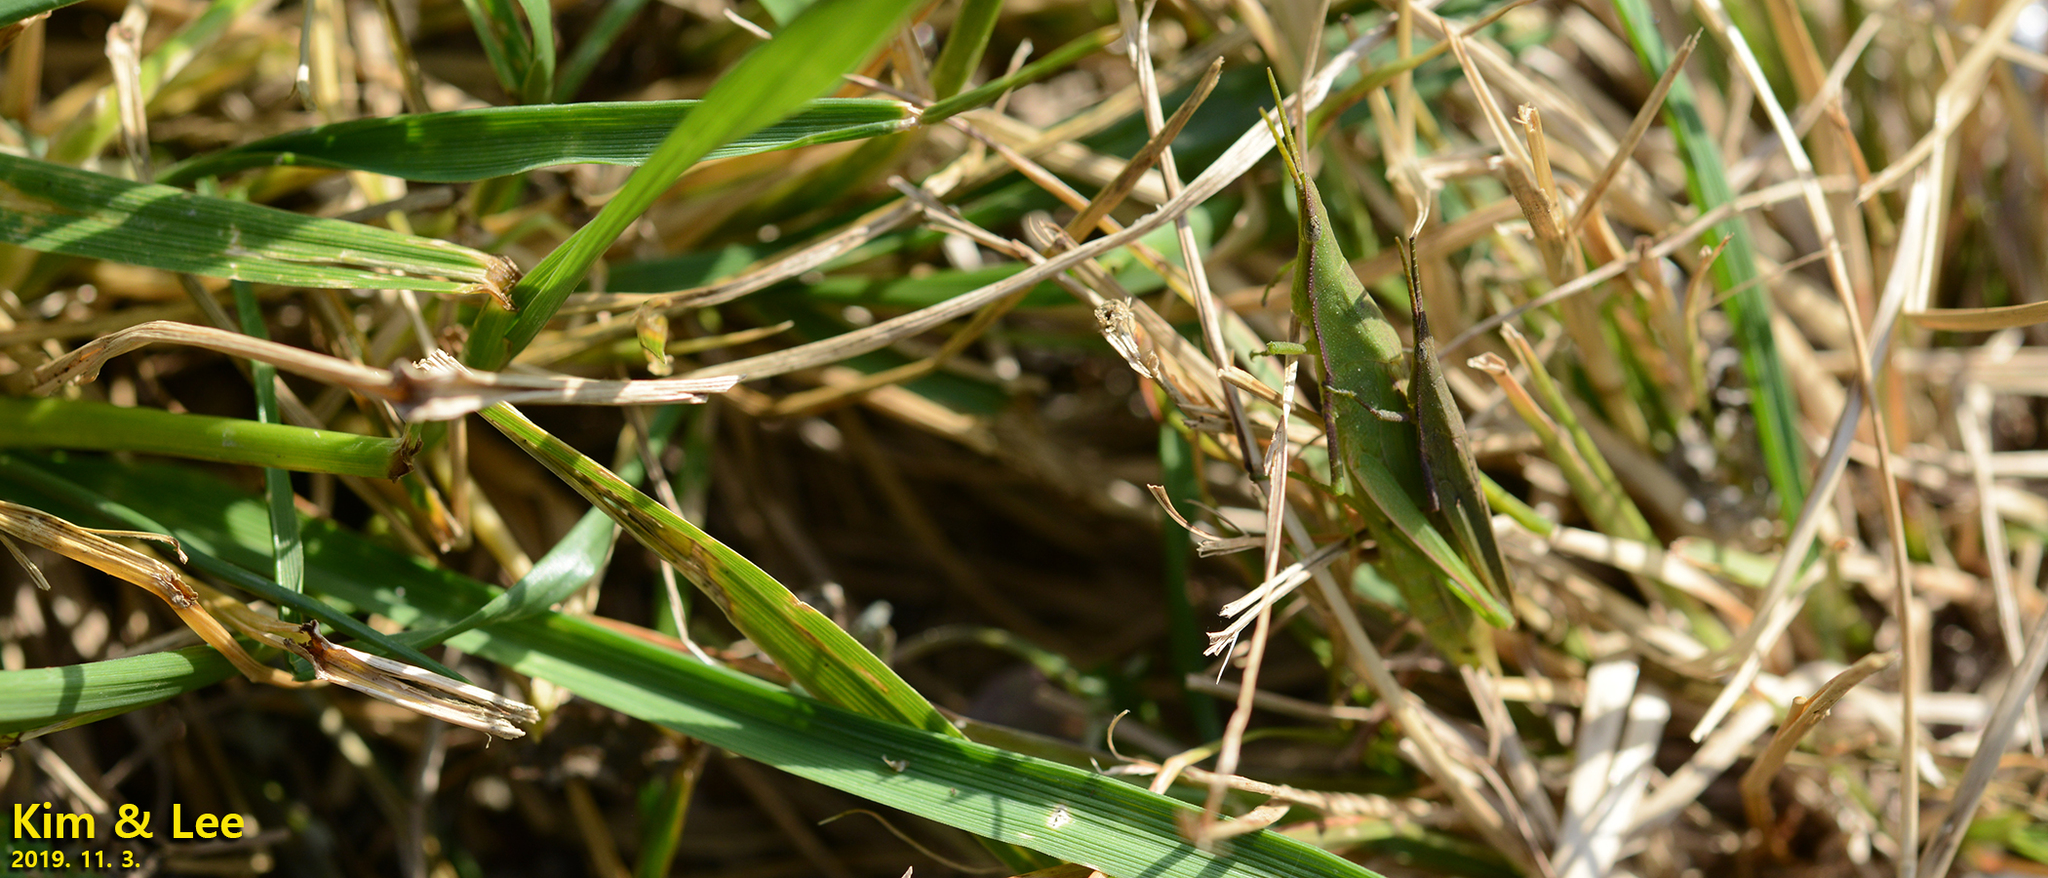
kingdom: Animalia
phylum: Arthropoda
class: Insecta
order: Orthoptera
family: Pyrgomorphidae
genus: Atractomorpha
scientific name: Atractomorpha lata
